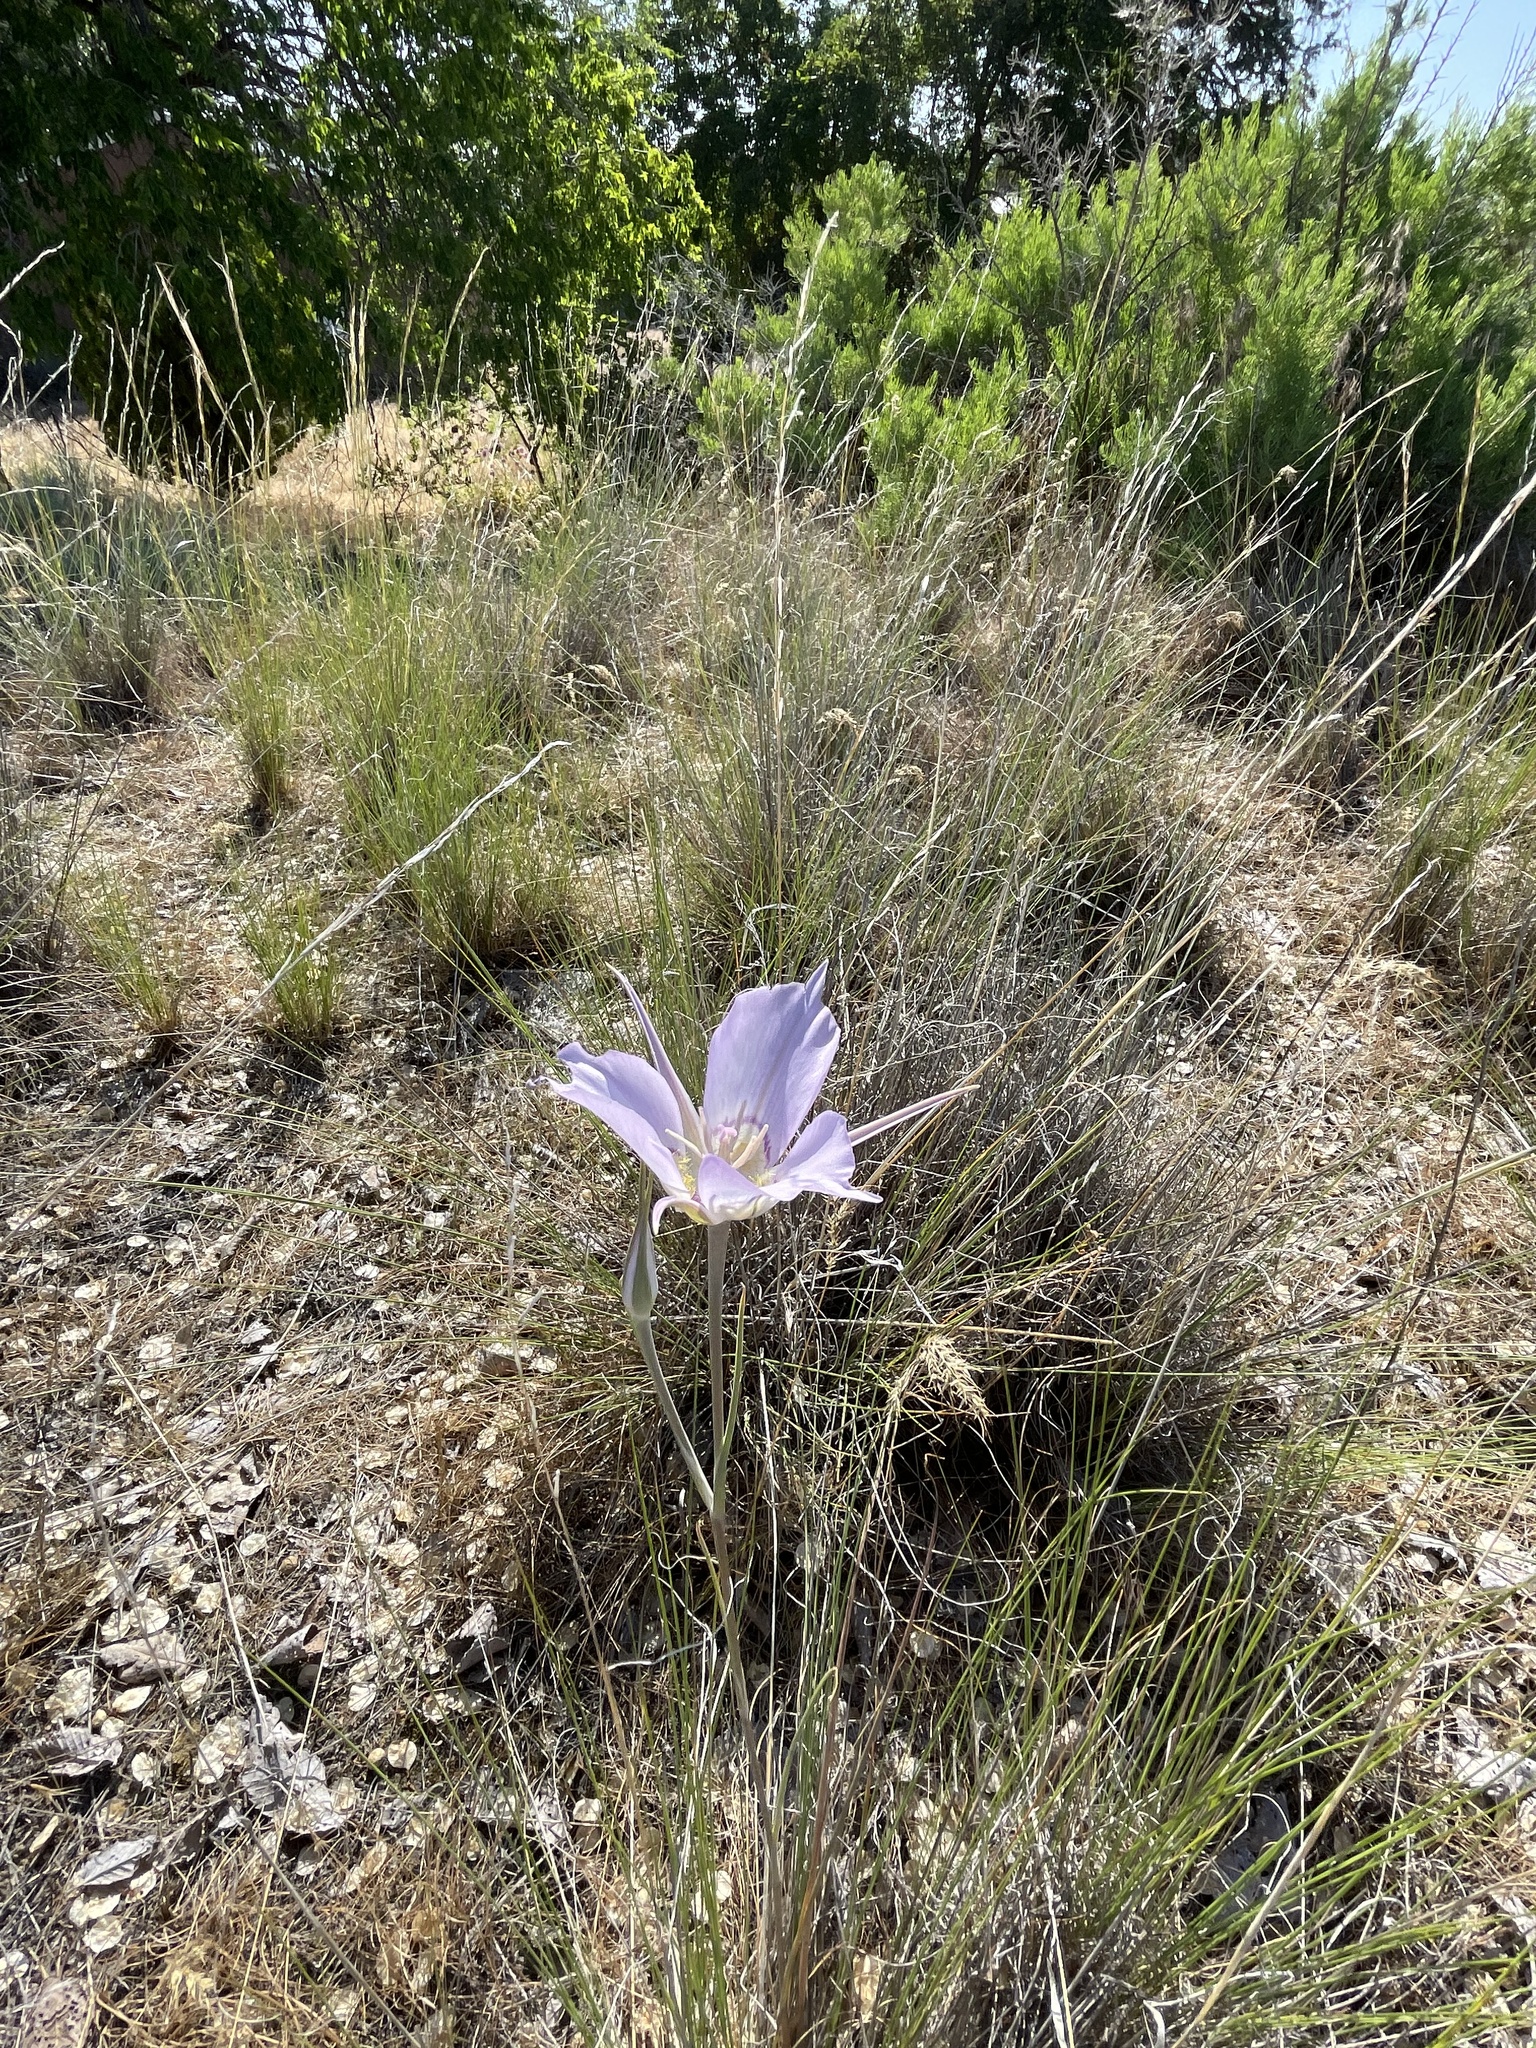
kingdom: Plantae
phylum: Tracheophyta
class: Liliopsida
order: Liliales
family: Liliaceae
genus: Calochortus
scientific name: Calochortus macrocarpus
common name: Green-band mariposa lily
